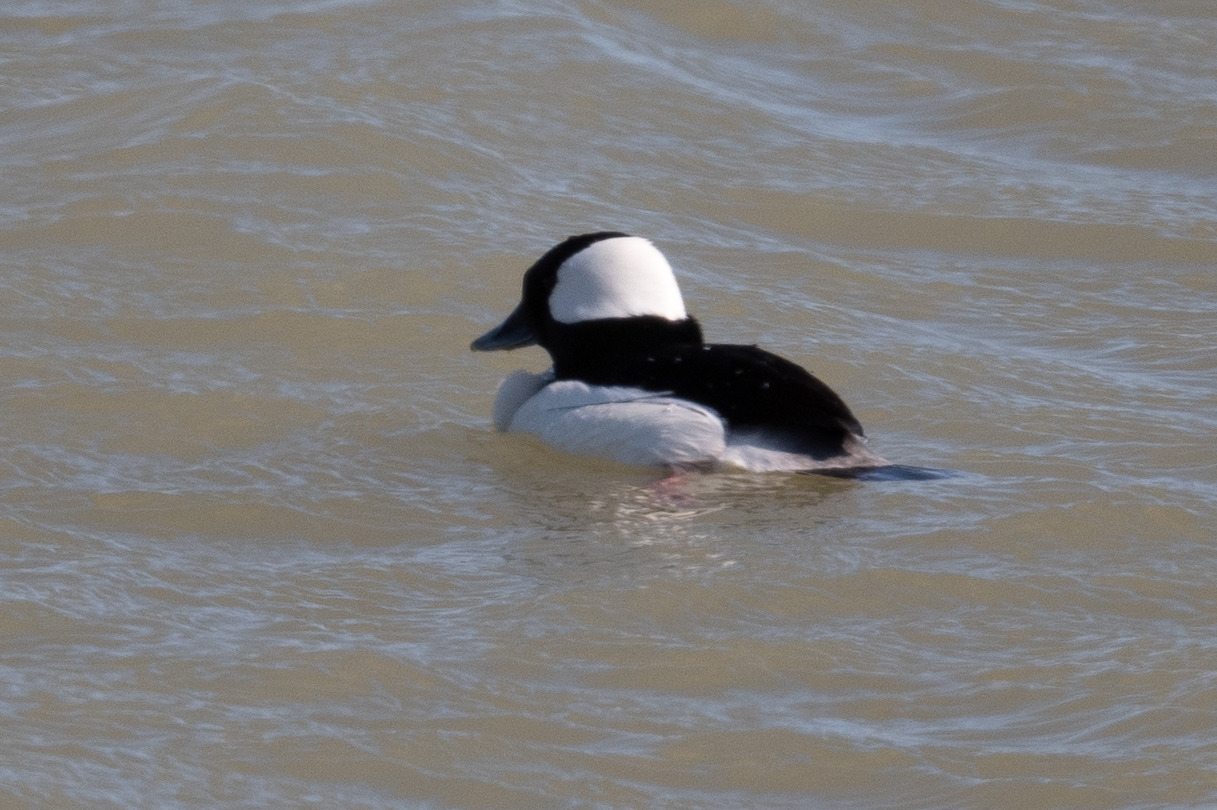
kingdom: Animalia
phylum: Chordata
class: Aves
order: Anseriformes
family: Anatidae
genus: Bucephala
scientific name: Bucephala albeola
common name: Bufflehead
